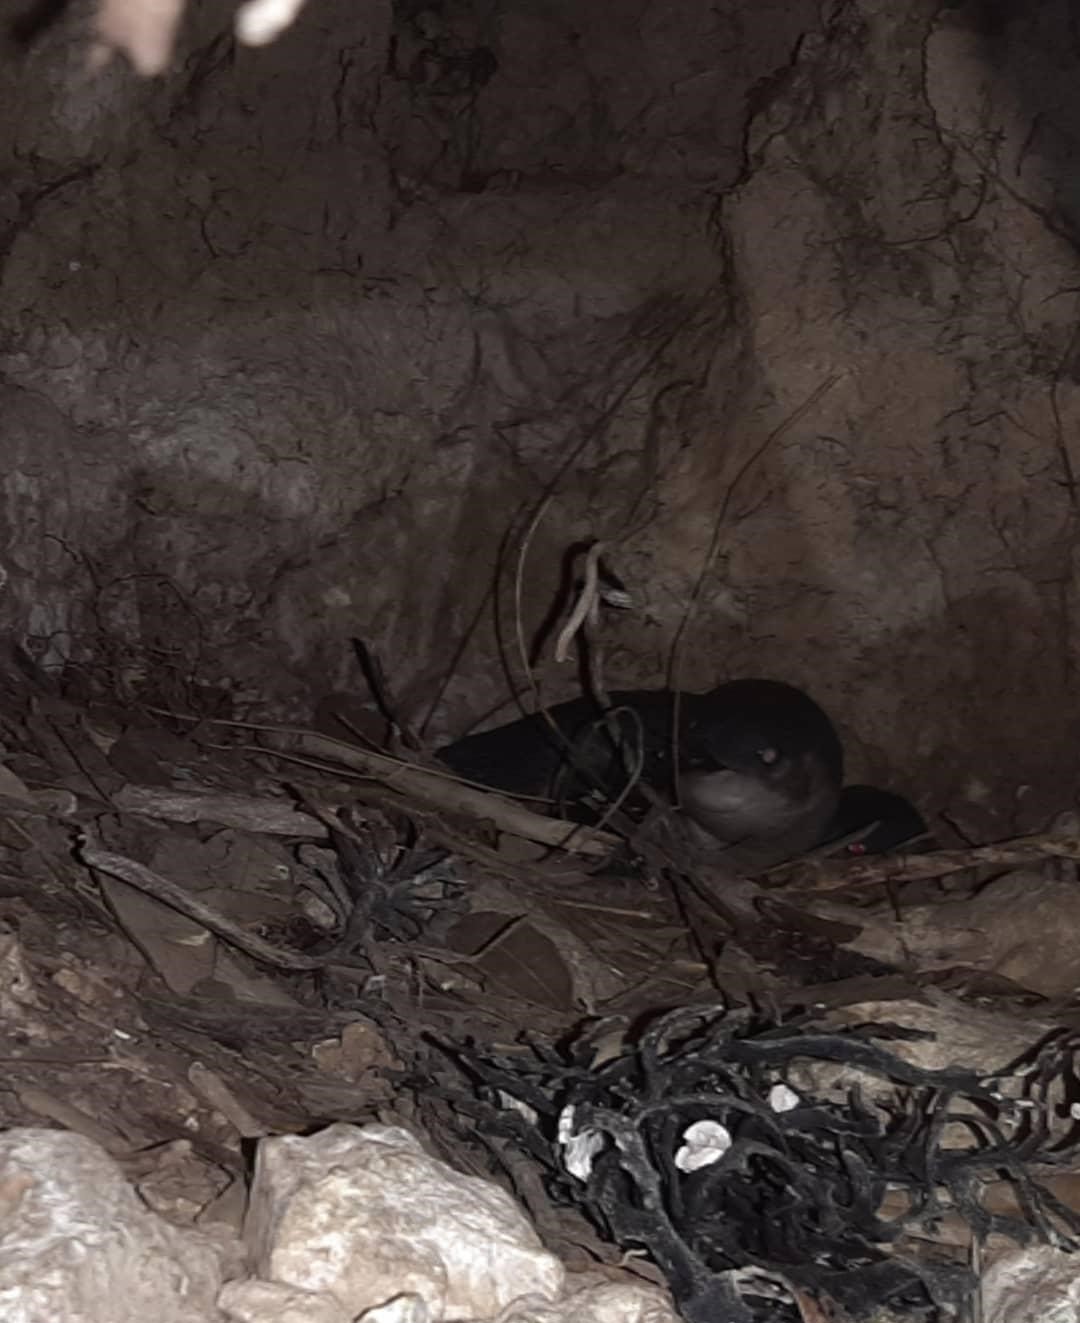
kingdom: Animalia
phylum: Chordata
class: Aves
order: Sphenisciformes
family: Spheniscidae
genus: Eudyptula
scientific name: Eudyptula minor
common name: Little penguin
